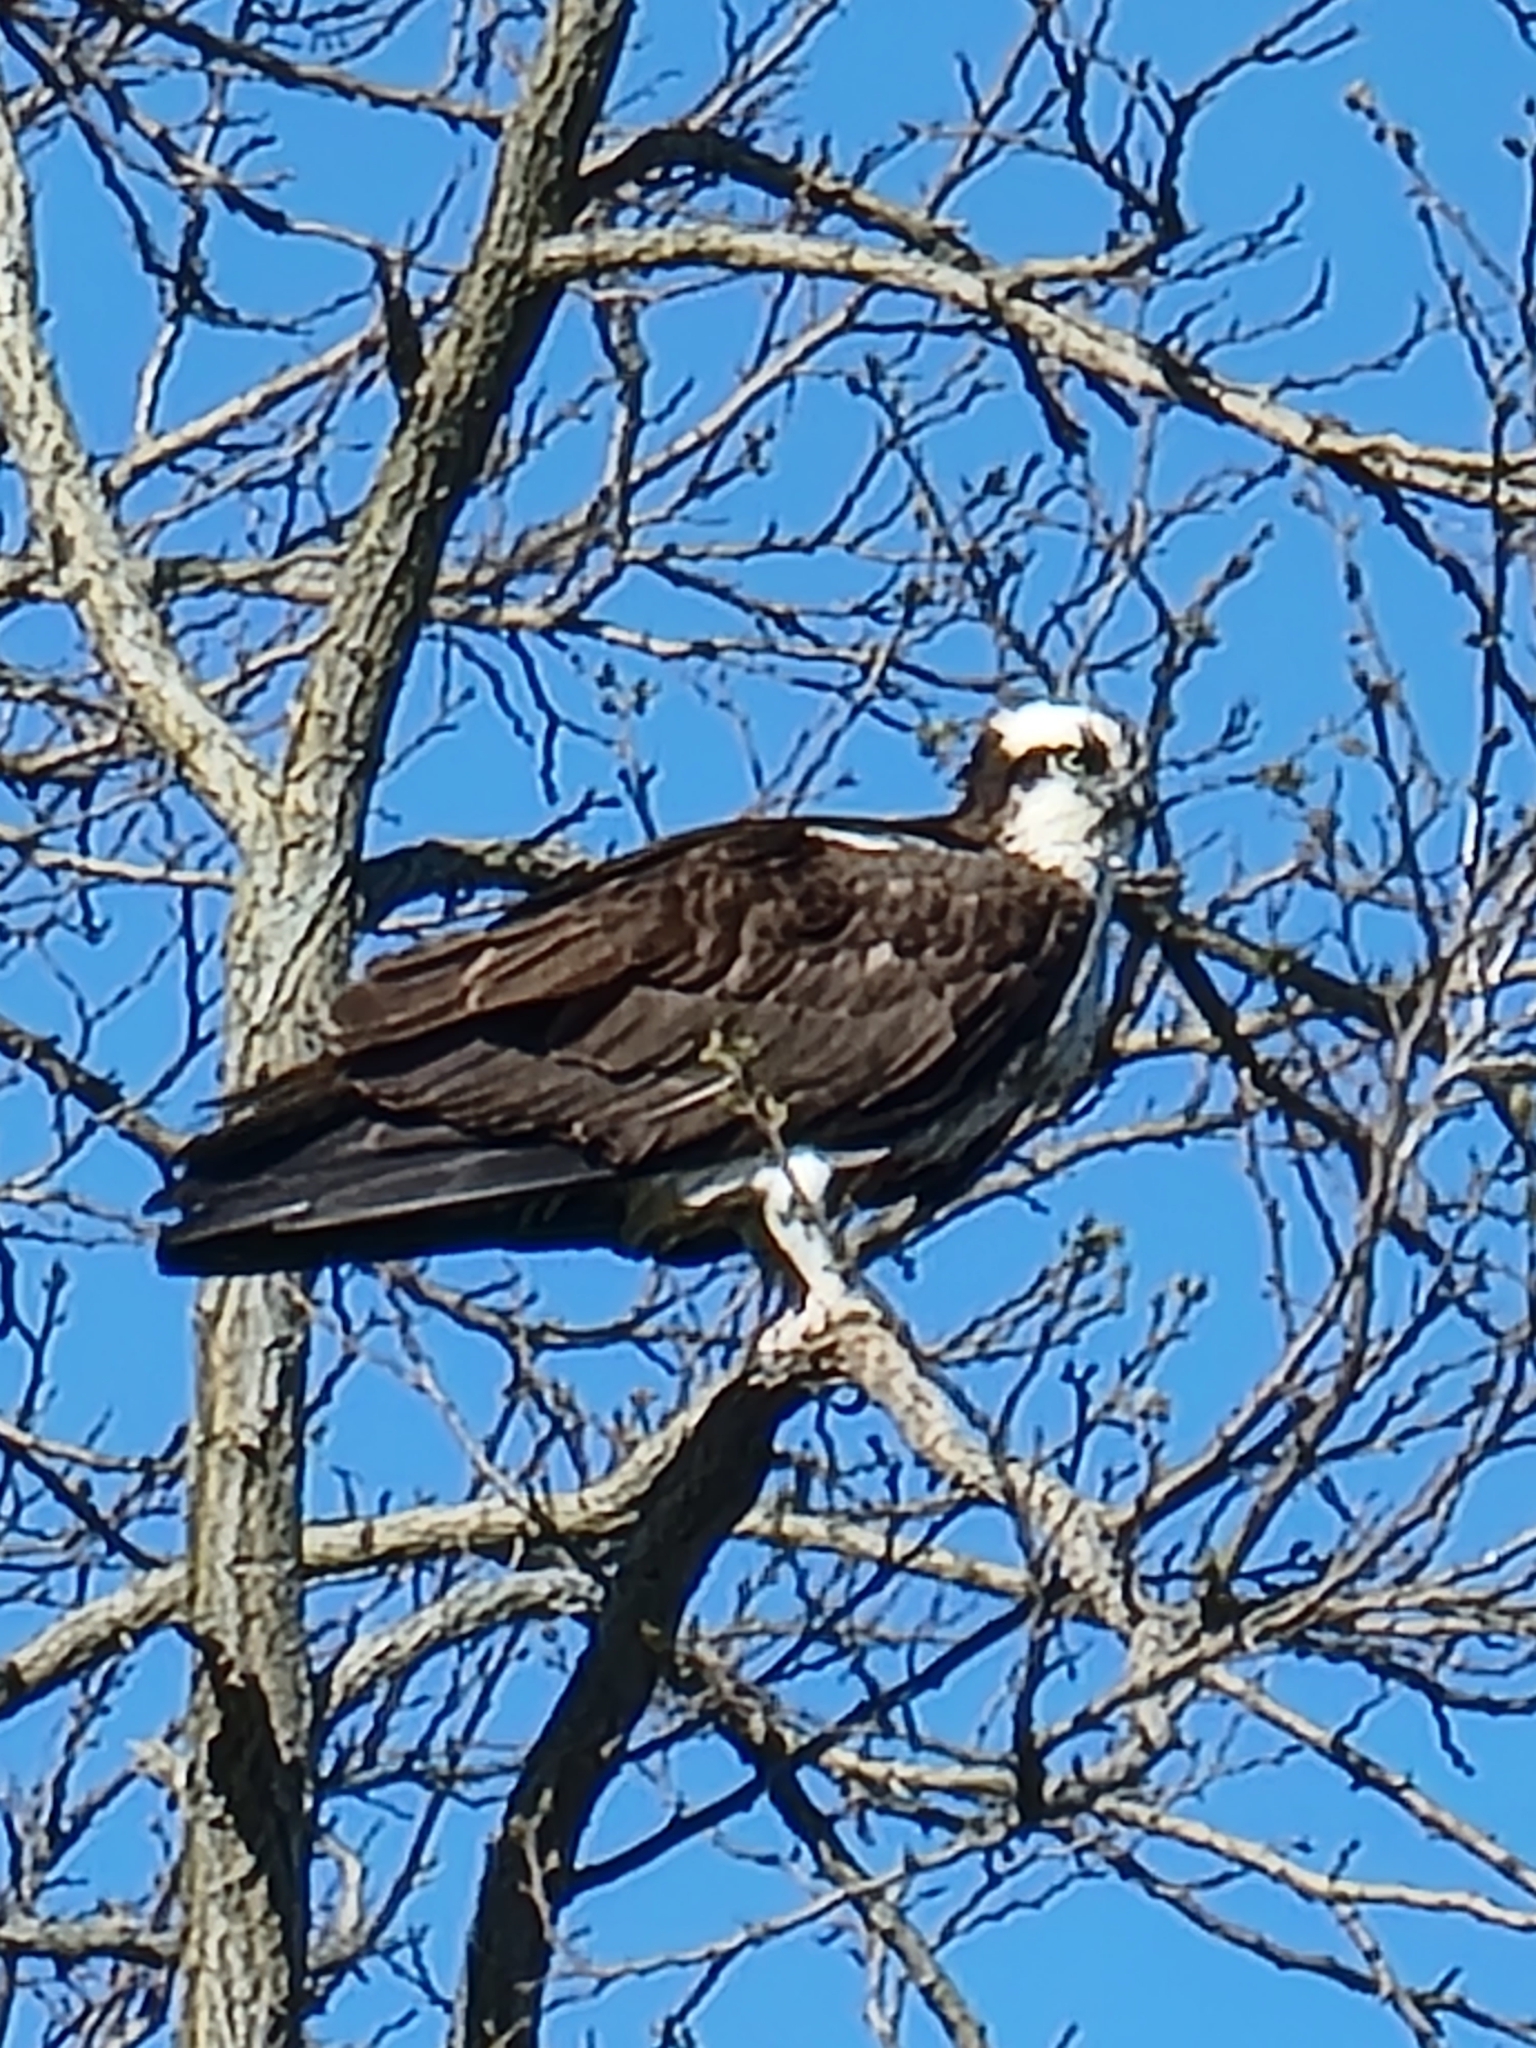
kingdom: Animalia
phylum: Chordata
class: Aves
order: Accipitriformes
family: Pandionidae
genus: Pandion
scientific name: Pandion haliaetus
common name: Osprey
